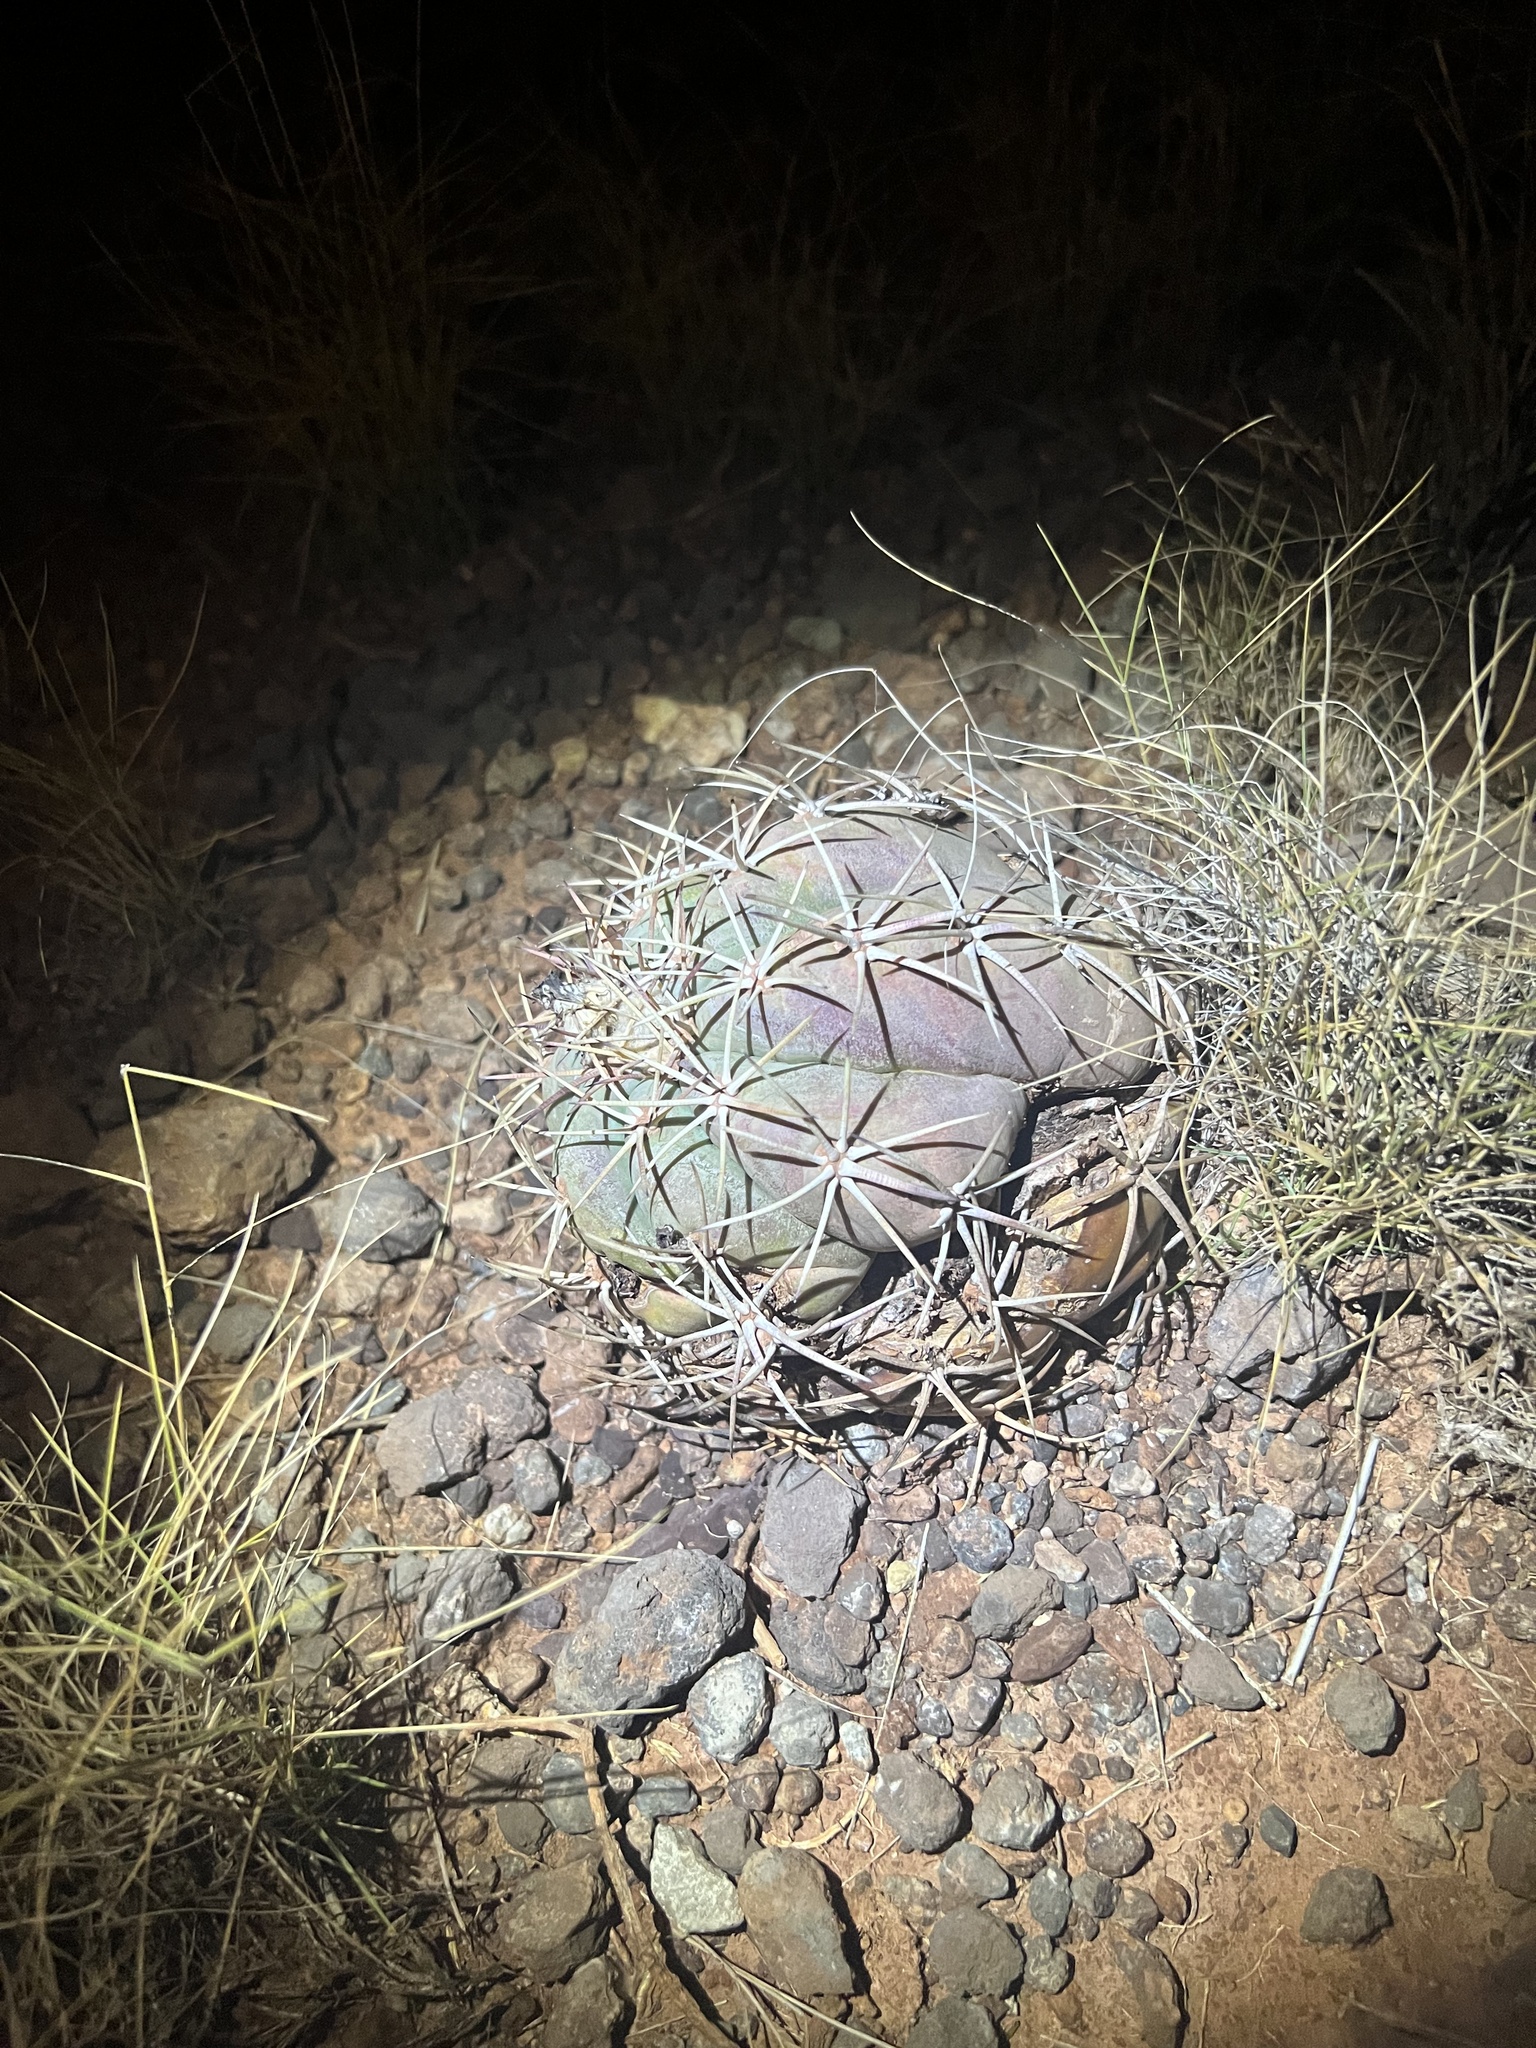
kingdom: Plantae
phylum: Tracheophyta
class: Magnoliopsida
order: Caryophyllales
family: Cactaceae
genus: Echinocactus
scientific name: Echinocactus horizonthalonius
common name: Devilshead
